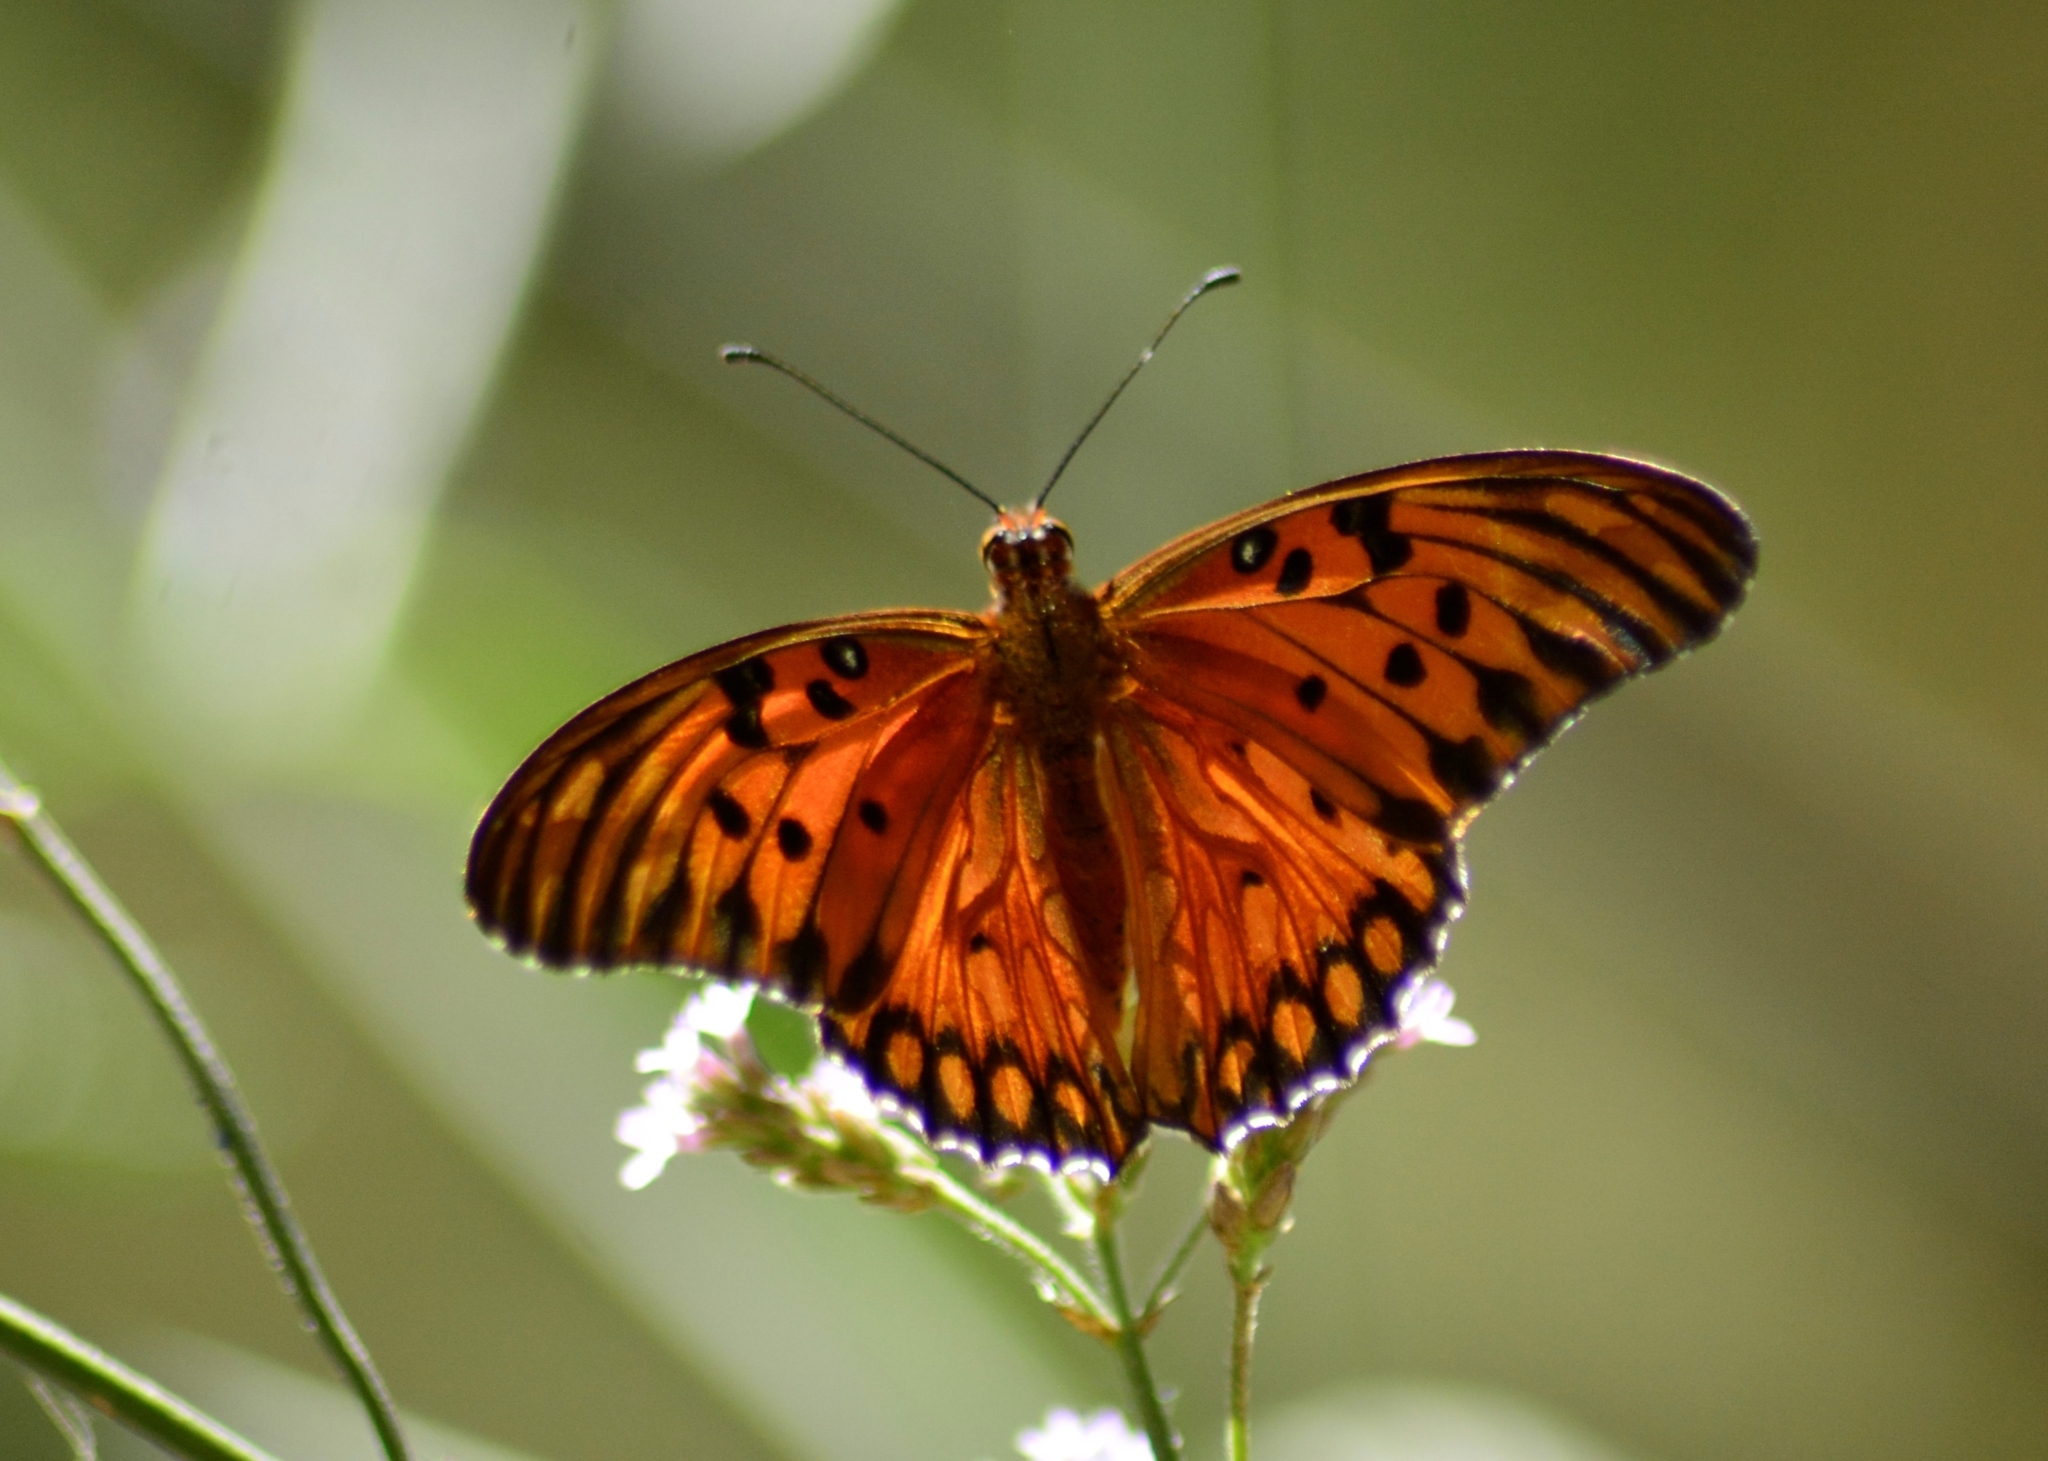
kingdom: Animalia
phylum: Arthropoda
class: Insecta
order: Lepidoptera
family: Nymphalidae
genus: Dione
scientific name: Dione vanillae
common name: Gulf fritillary
